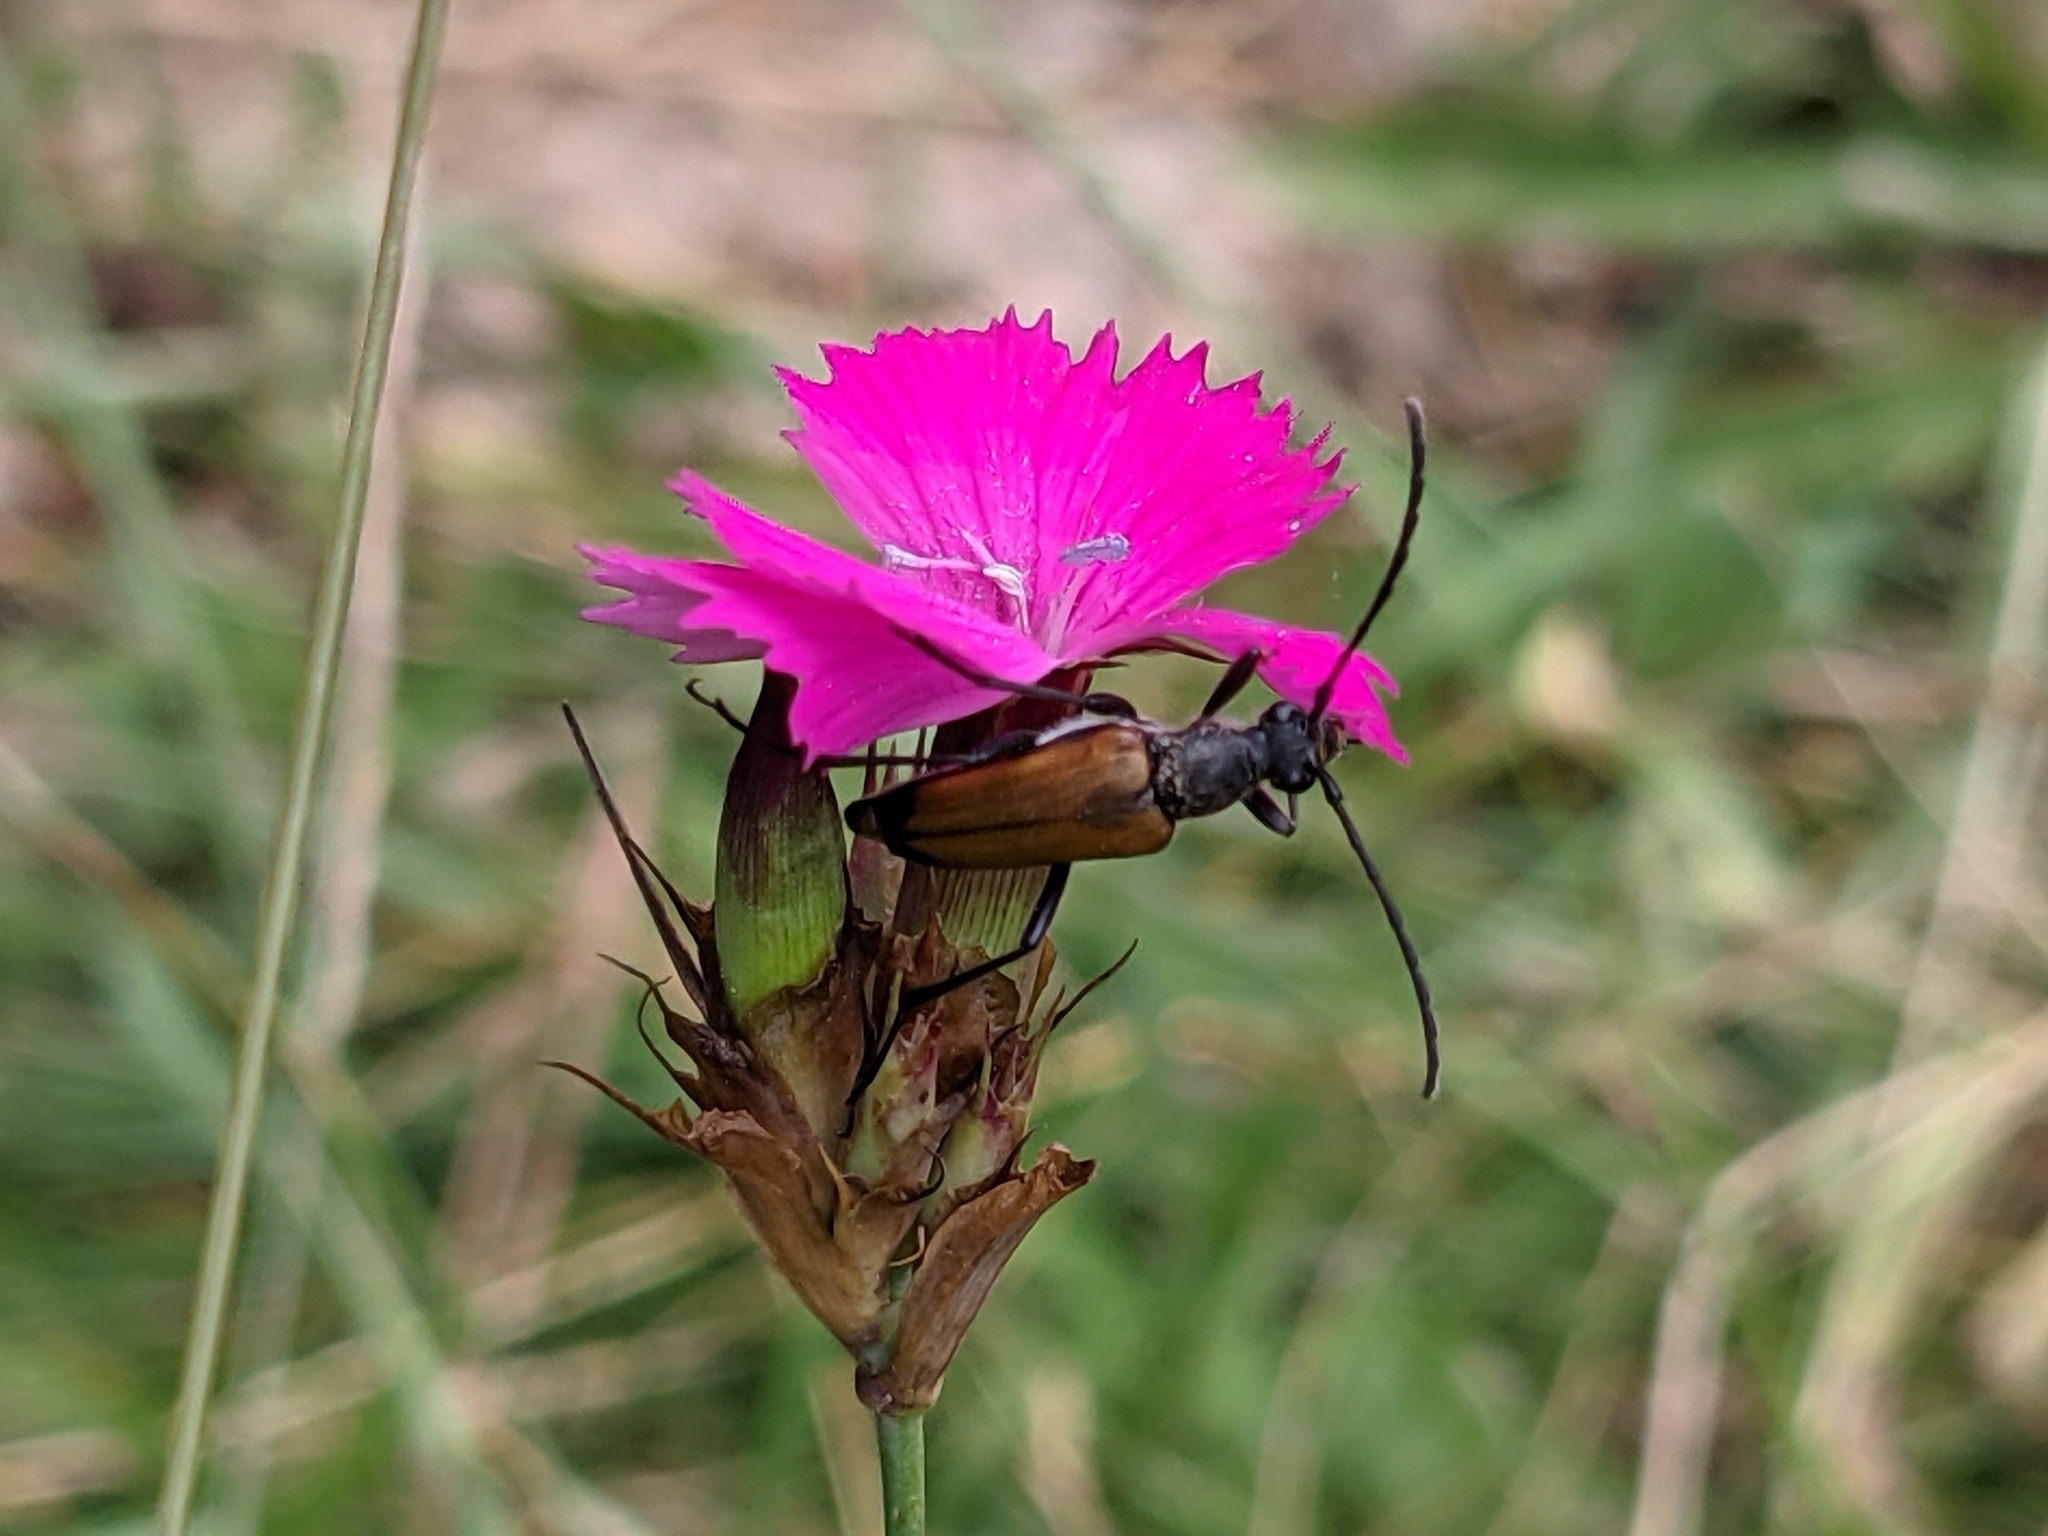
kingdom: Animalia
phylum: Arthropoda
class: Insecta
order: Coleoptera
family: Cerambycidae
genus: Anastrangalia
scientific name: Anastrangalia sanguinolenta
